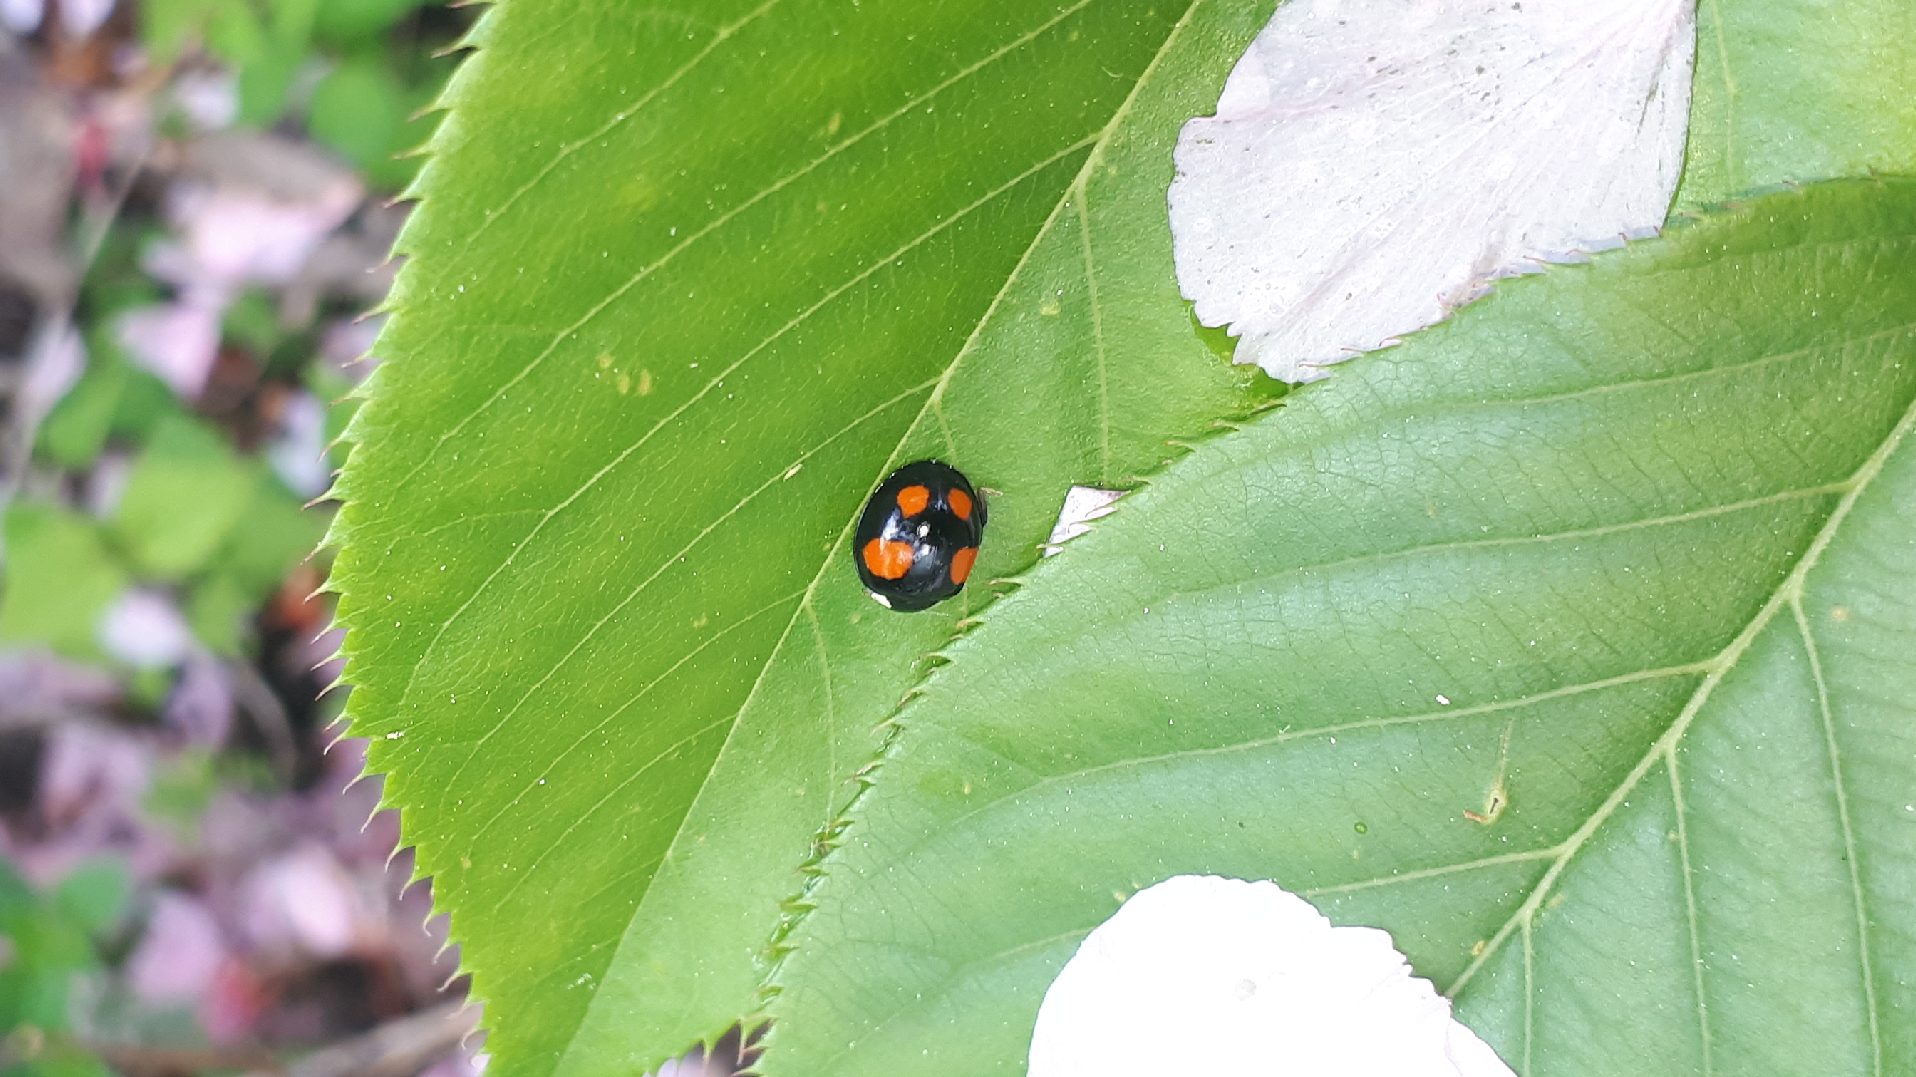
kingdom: Animalia
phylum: Arthropoda
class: Insecta
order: Coleoptera
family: Coccinellidae
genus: Harmonia
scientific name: Harmonia axyridis
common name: Harlequin ladybird
